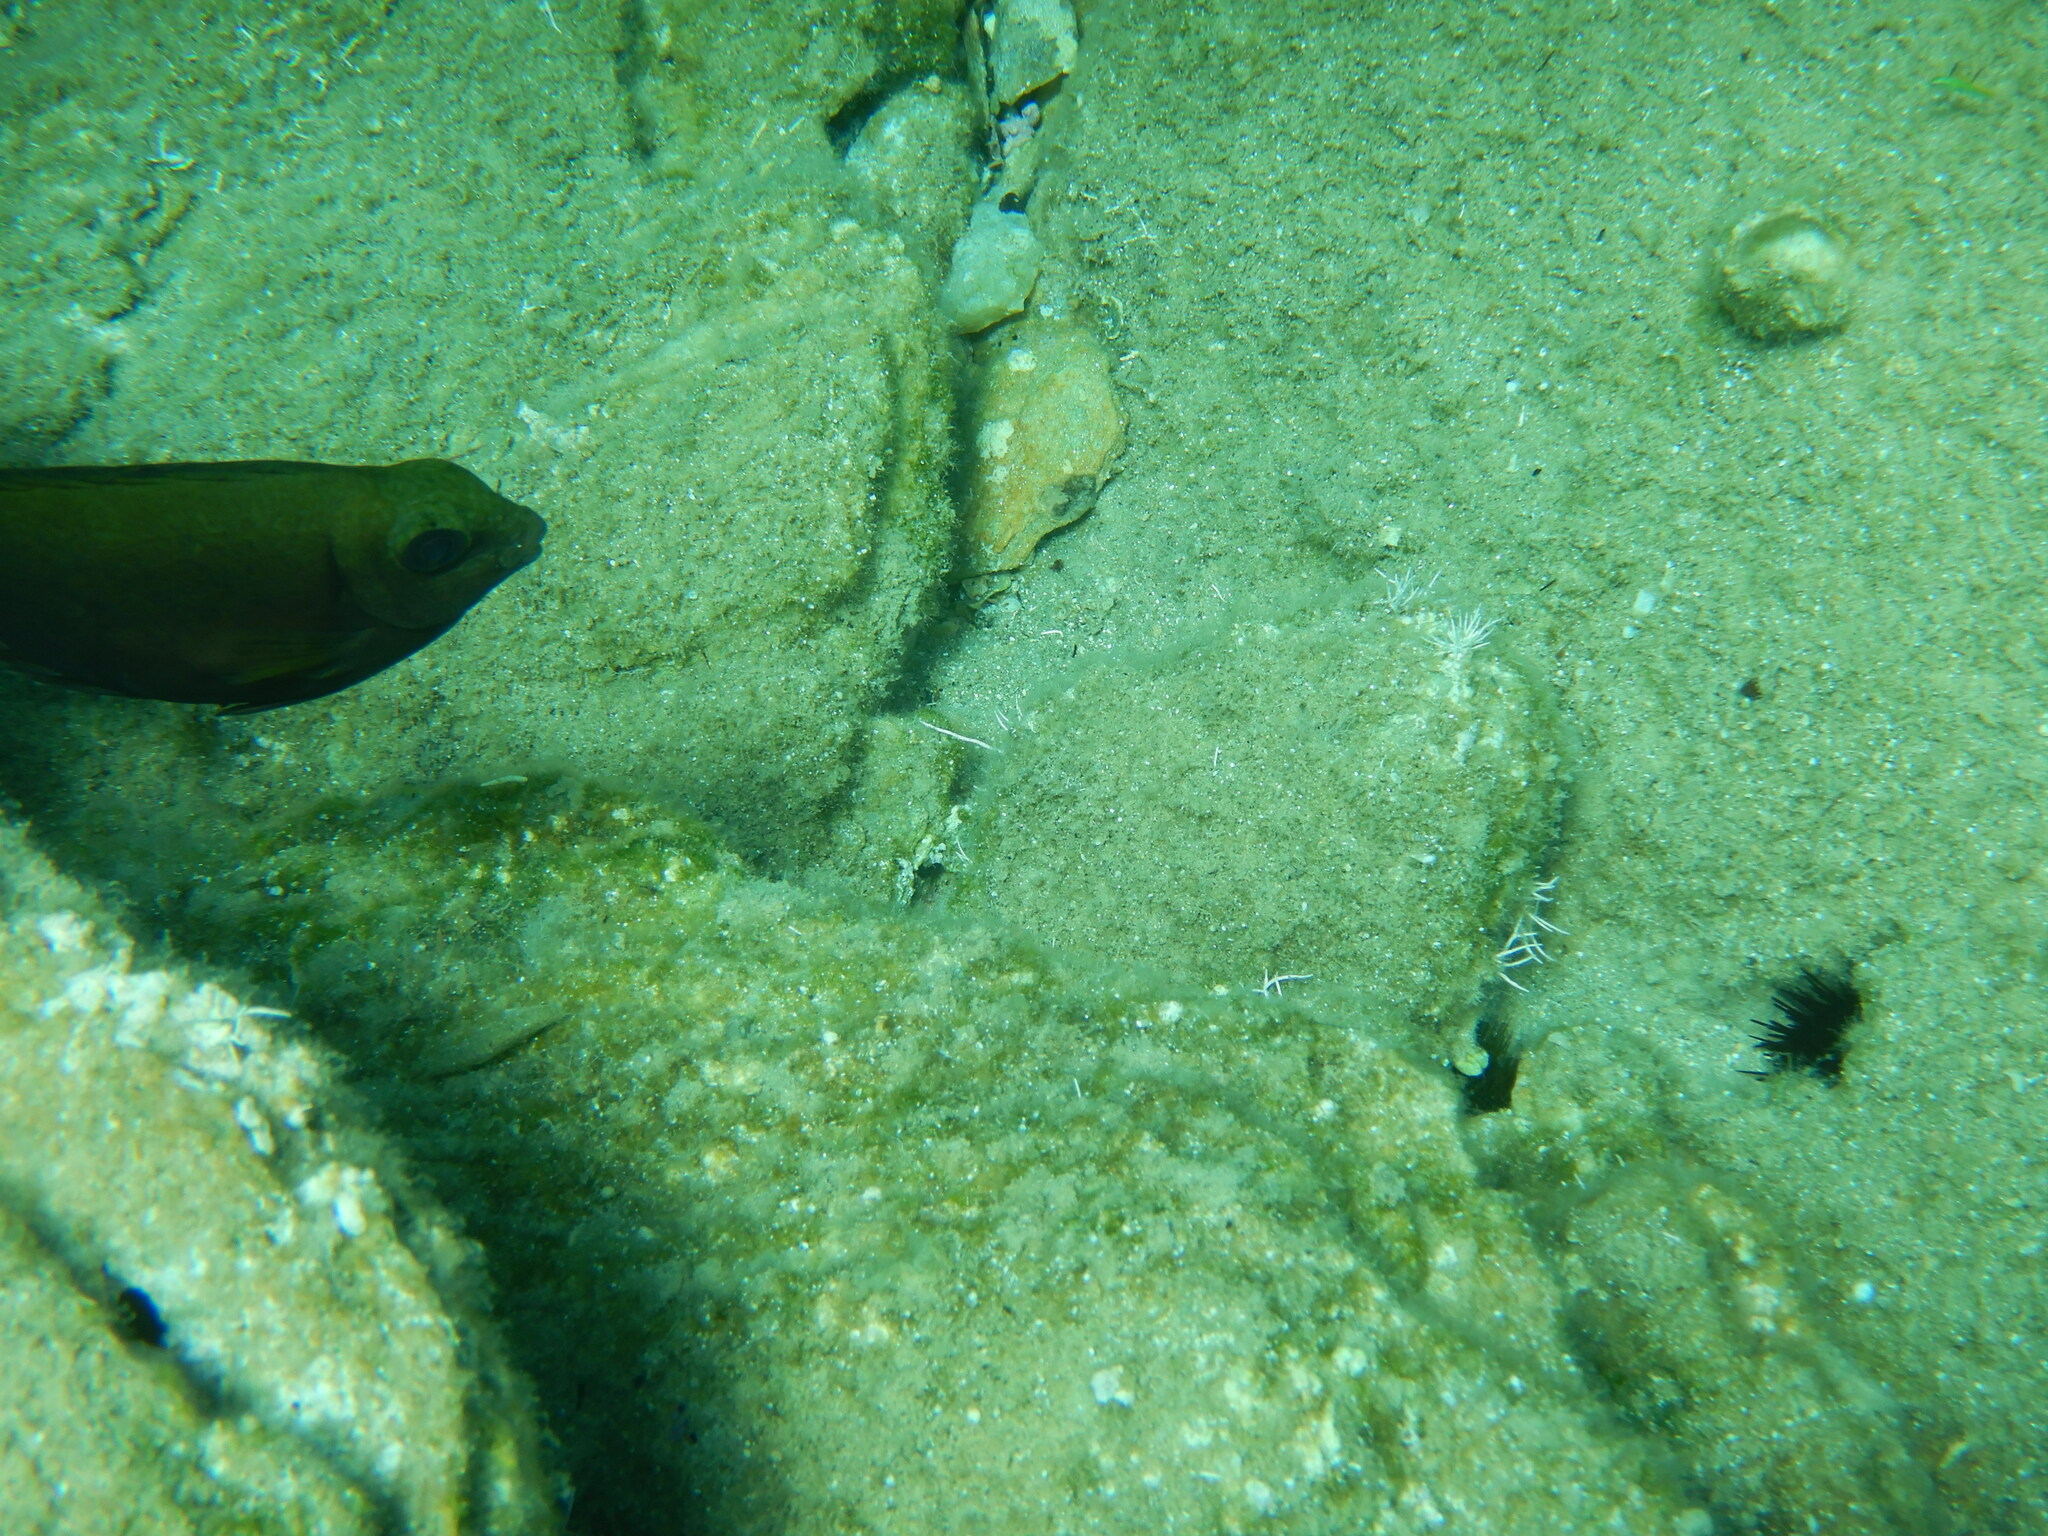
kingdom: Animalia
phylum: Chordata
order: Perciformes
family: Siganidae
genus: Siganus
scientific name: Siganus luridus
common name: Dusky spinefoot
